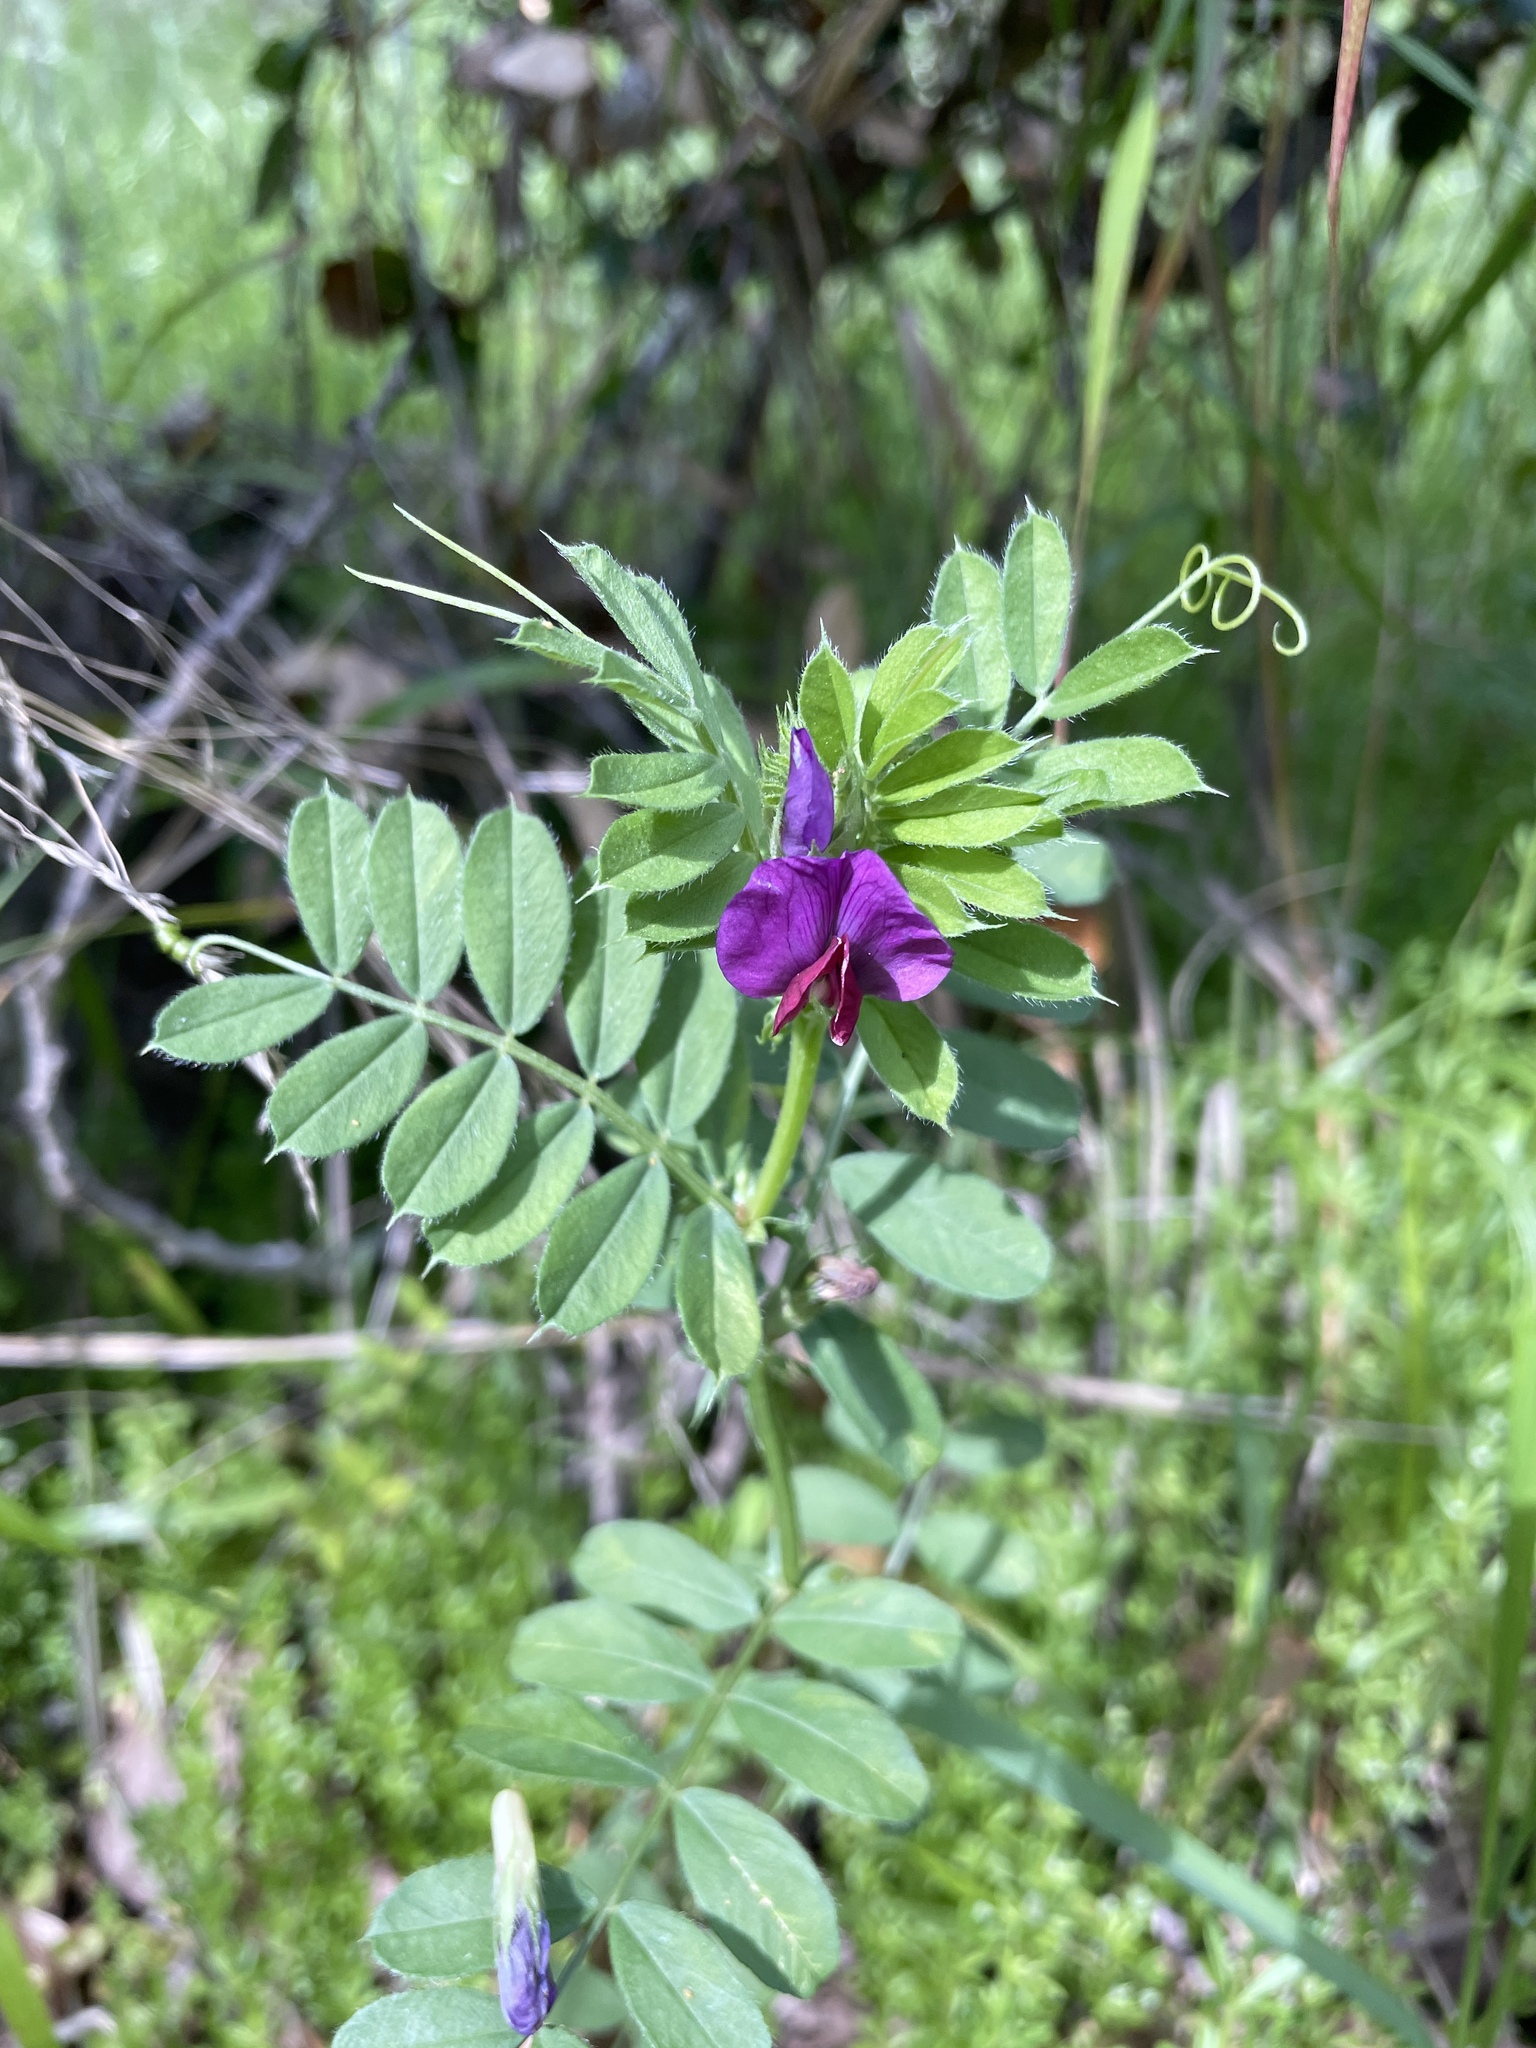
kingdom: Plantae
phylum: Tracheophyta
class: Magnoliopsida
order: Fabales
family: Fabaceae
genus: Vicia
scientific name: Vicia sativa
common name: Garden vetch
